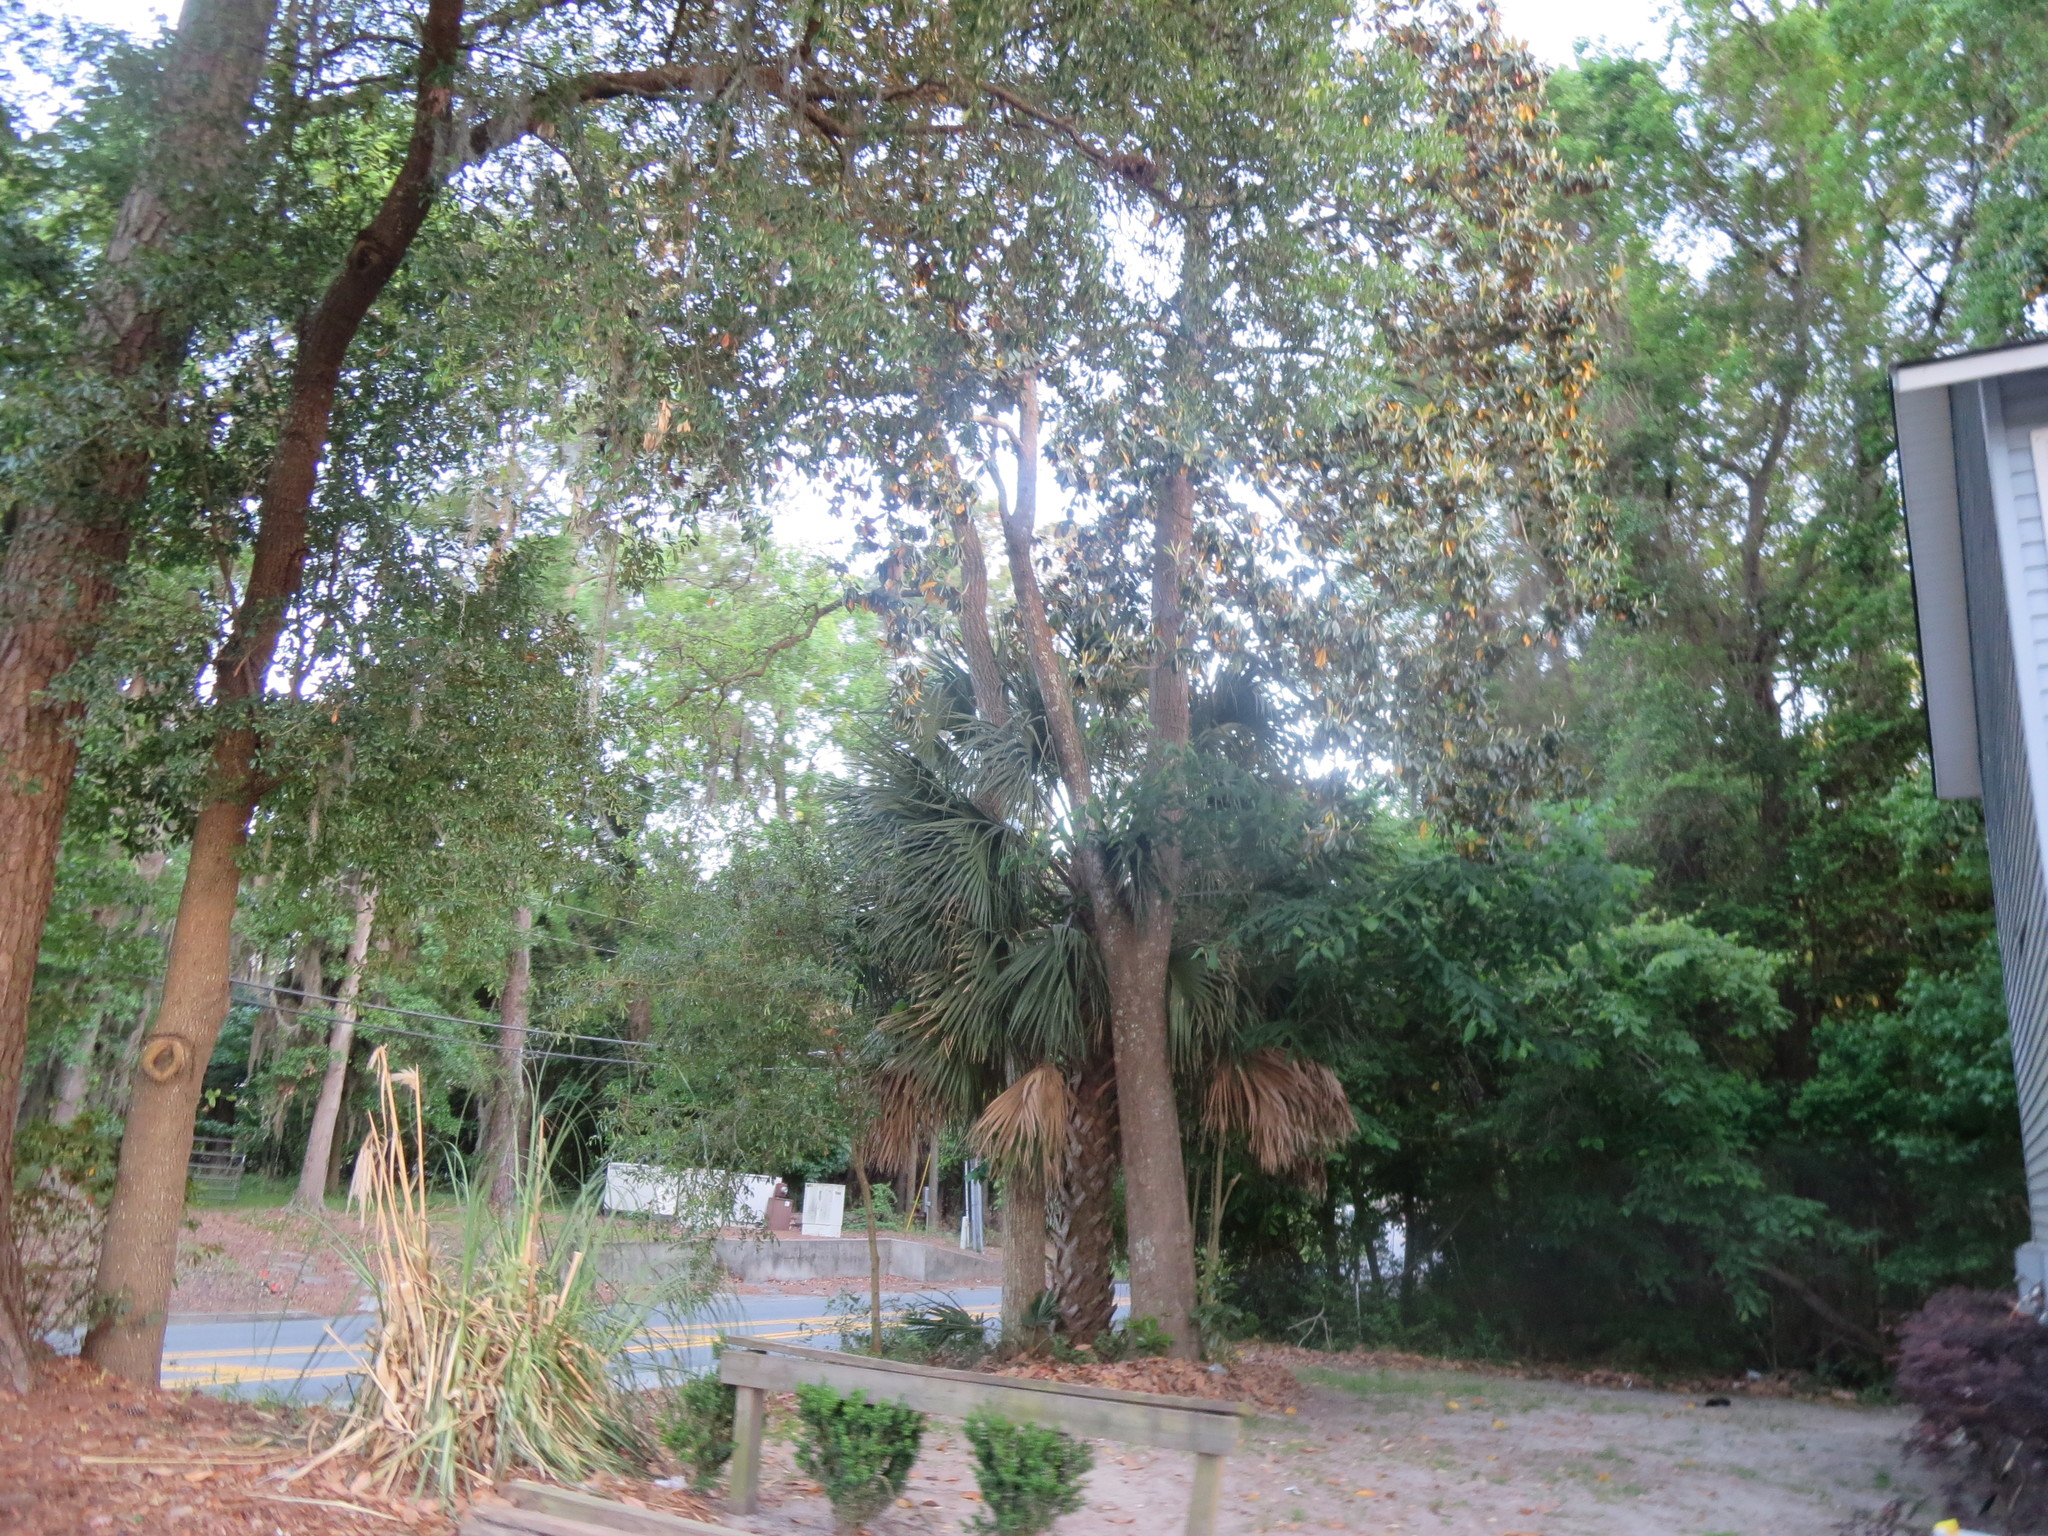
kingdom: Plantae
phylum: Tracheophyta
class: Magnoliopsida
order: Magnoliales
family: Magnoliaceae
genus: Magnolia
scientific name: Magnolia grandiflora
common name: Southern magnolia
